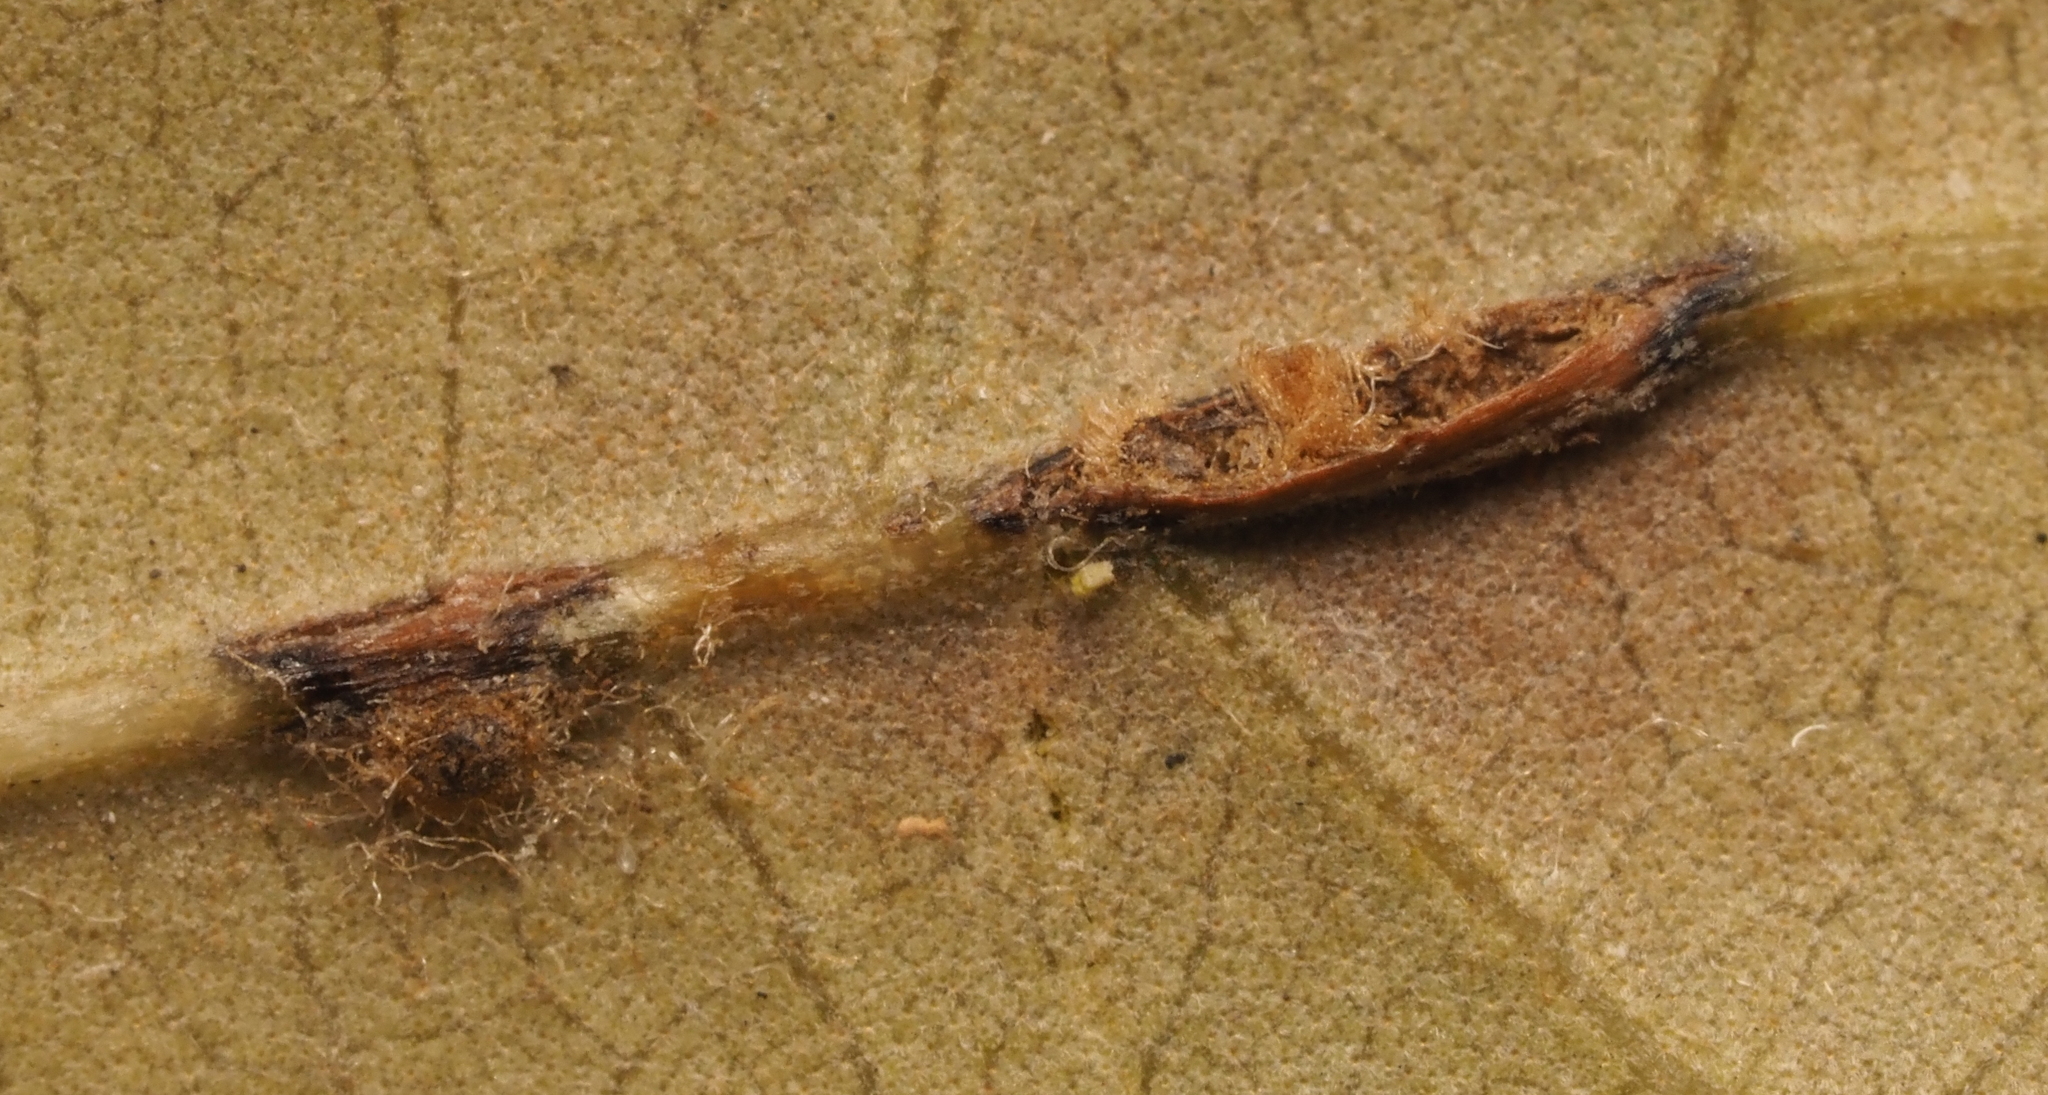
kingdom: Animalia
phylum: Arthropoda
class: Insecta
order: Hymenoptera
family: Cynipidae
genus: Andricus
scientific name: Andricus Druon quercuslanigerum
